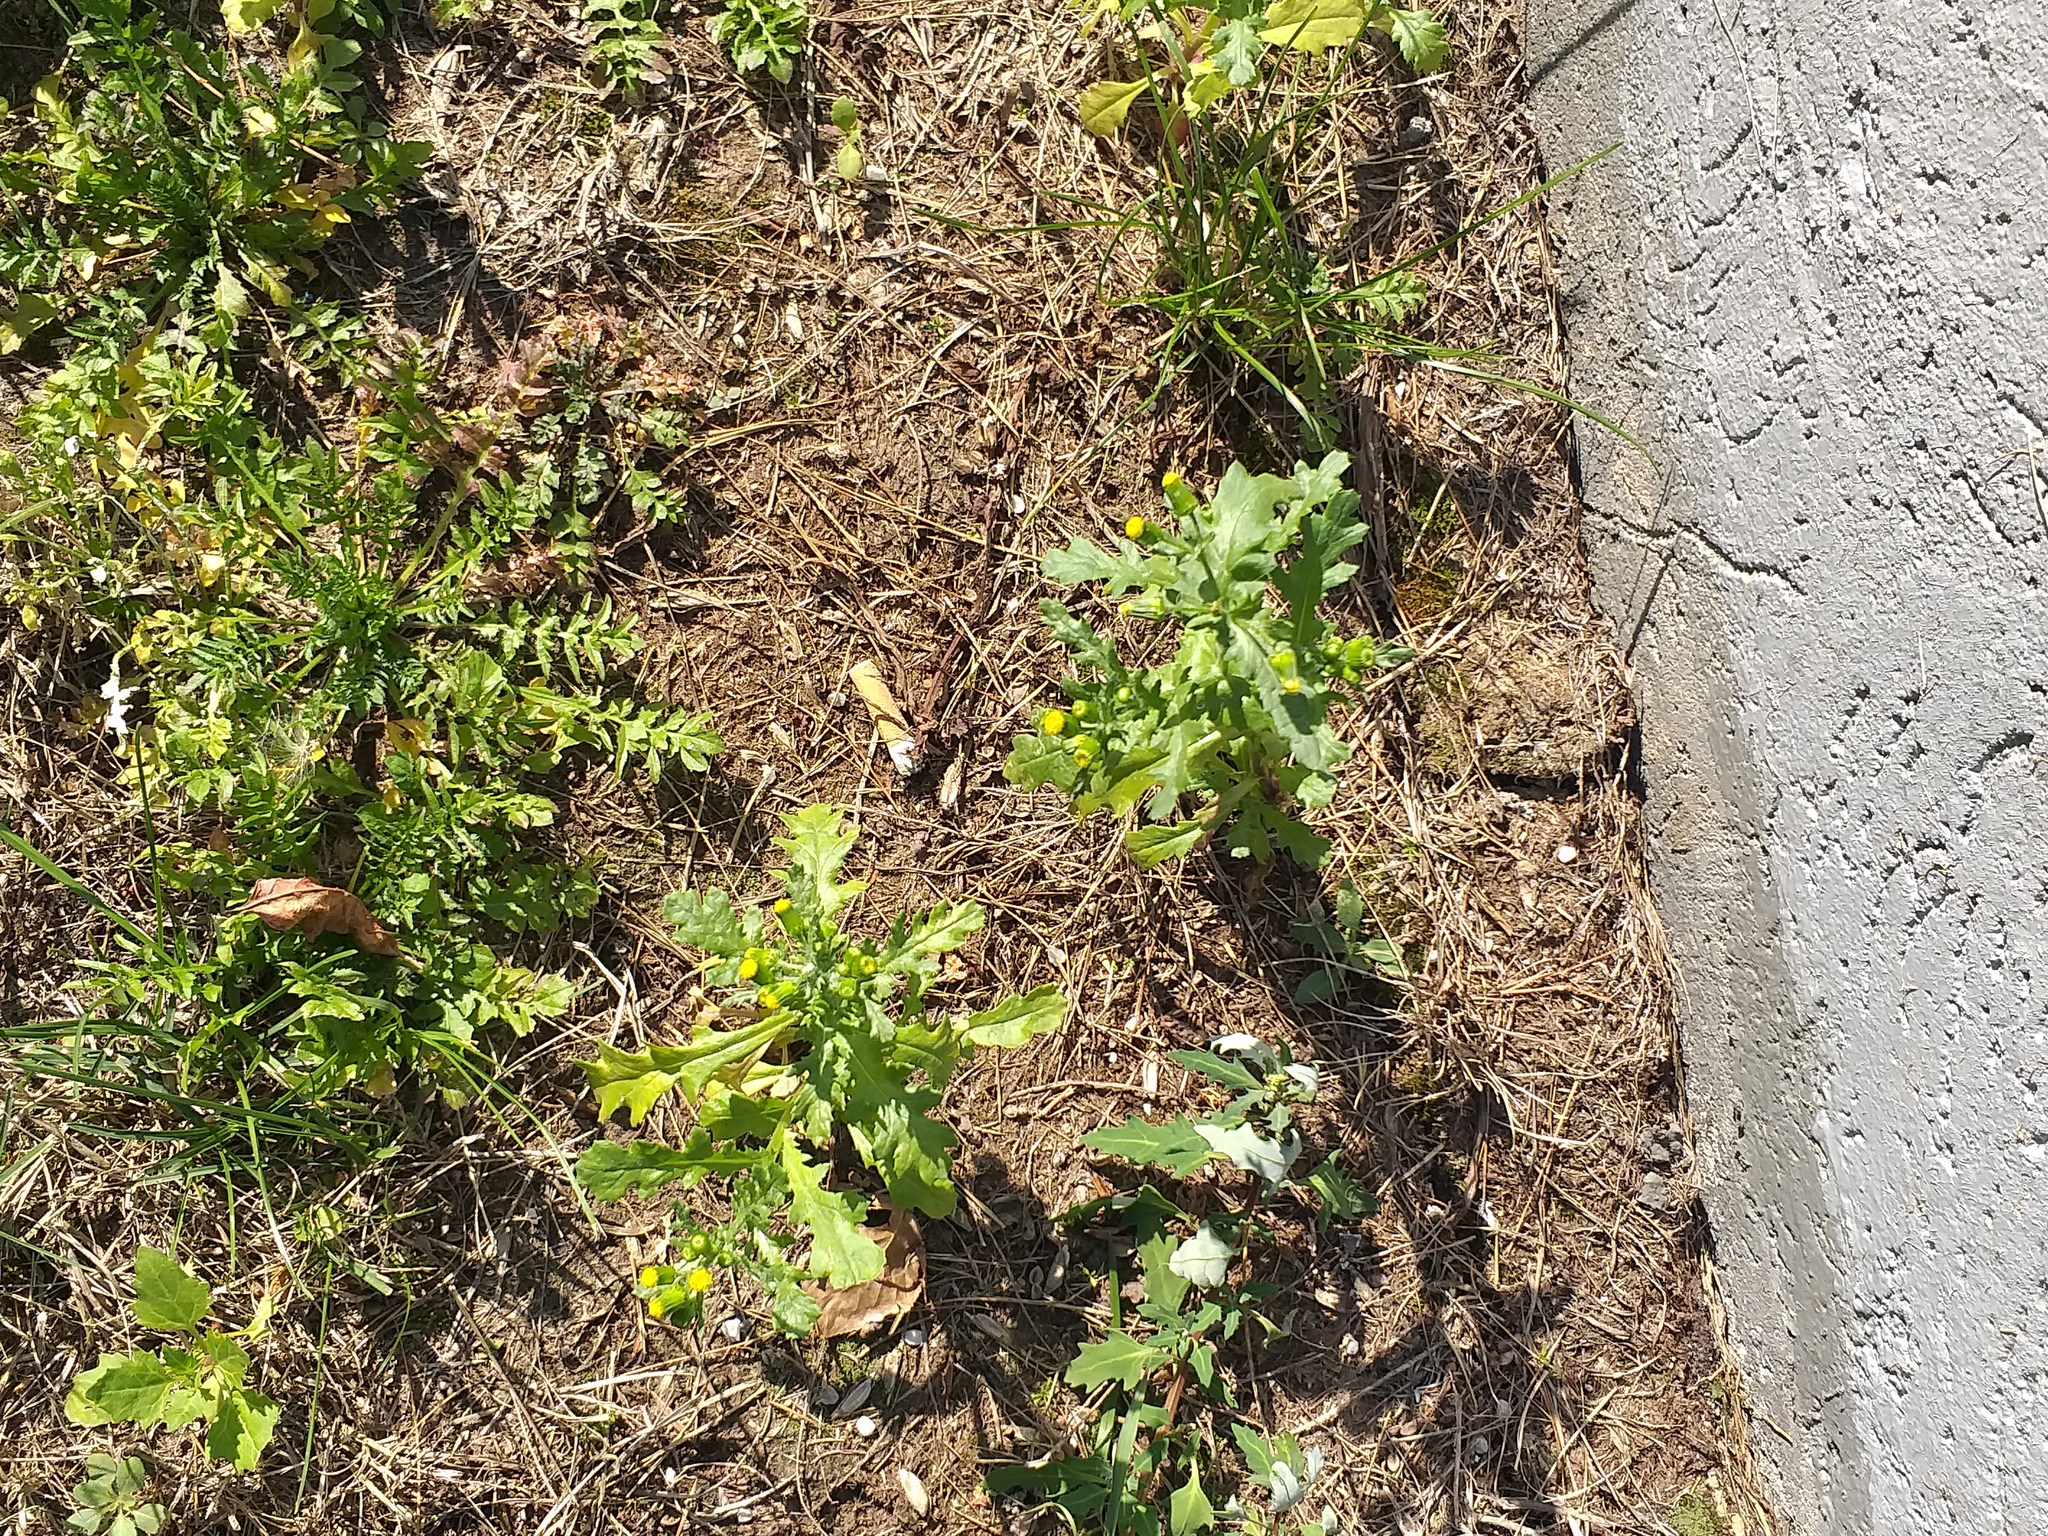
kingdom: Plantae
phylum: Tracheophyta
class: Magnoliopsida
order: Asterales
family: Asteraceae
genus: Senecio
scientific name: Senecio vulgaris
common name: Old-man-in-the-spring
